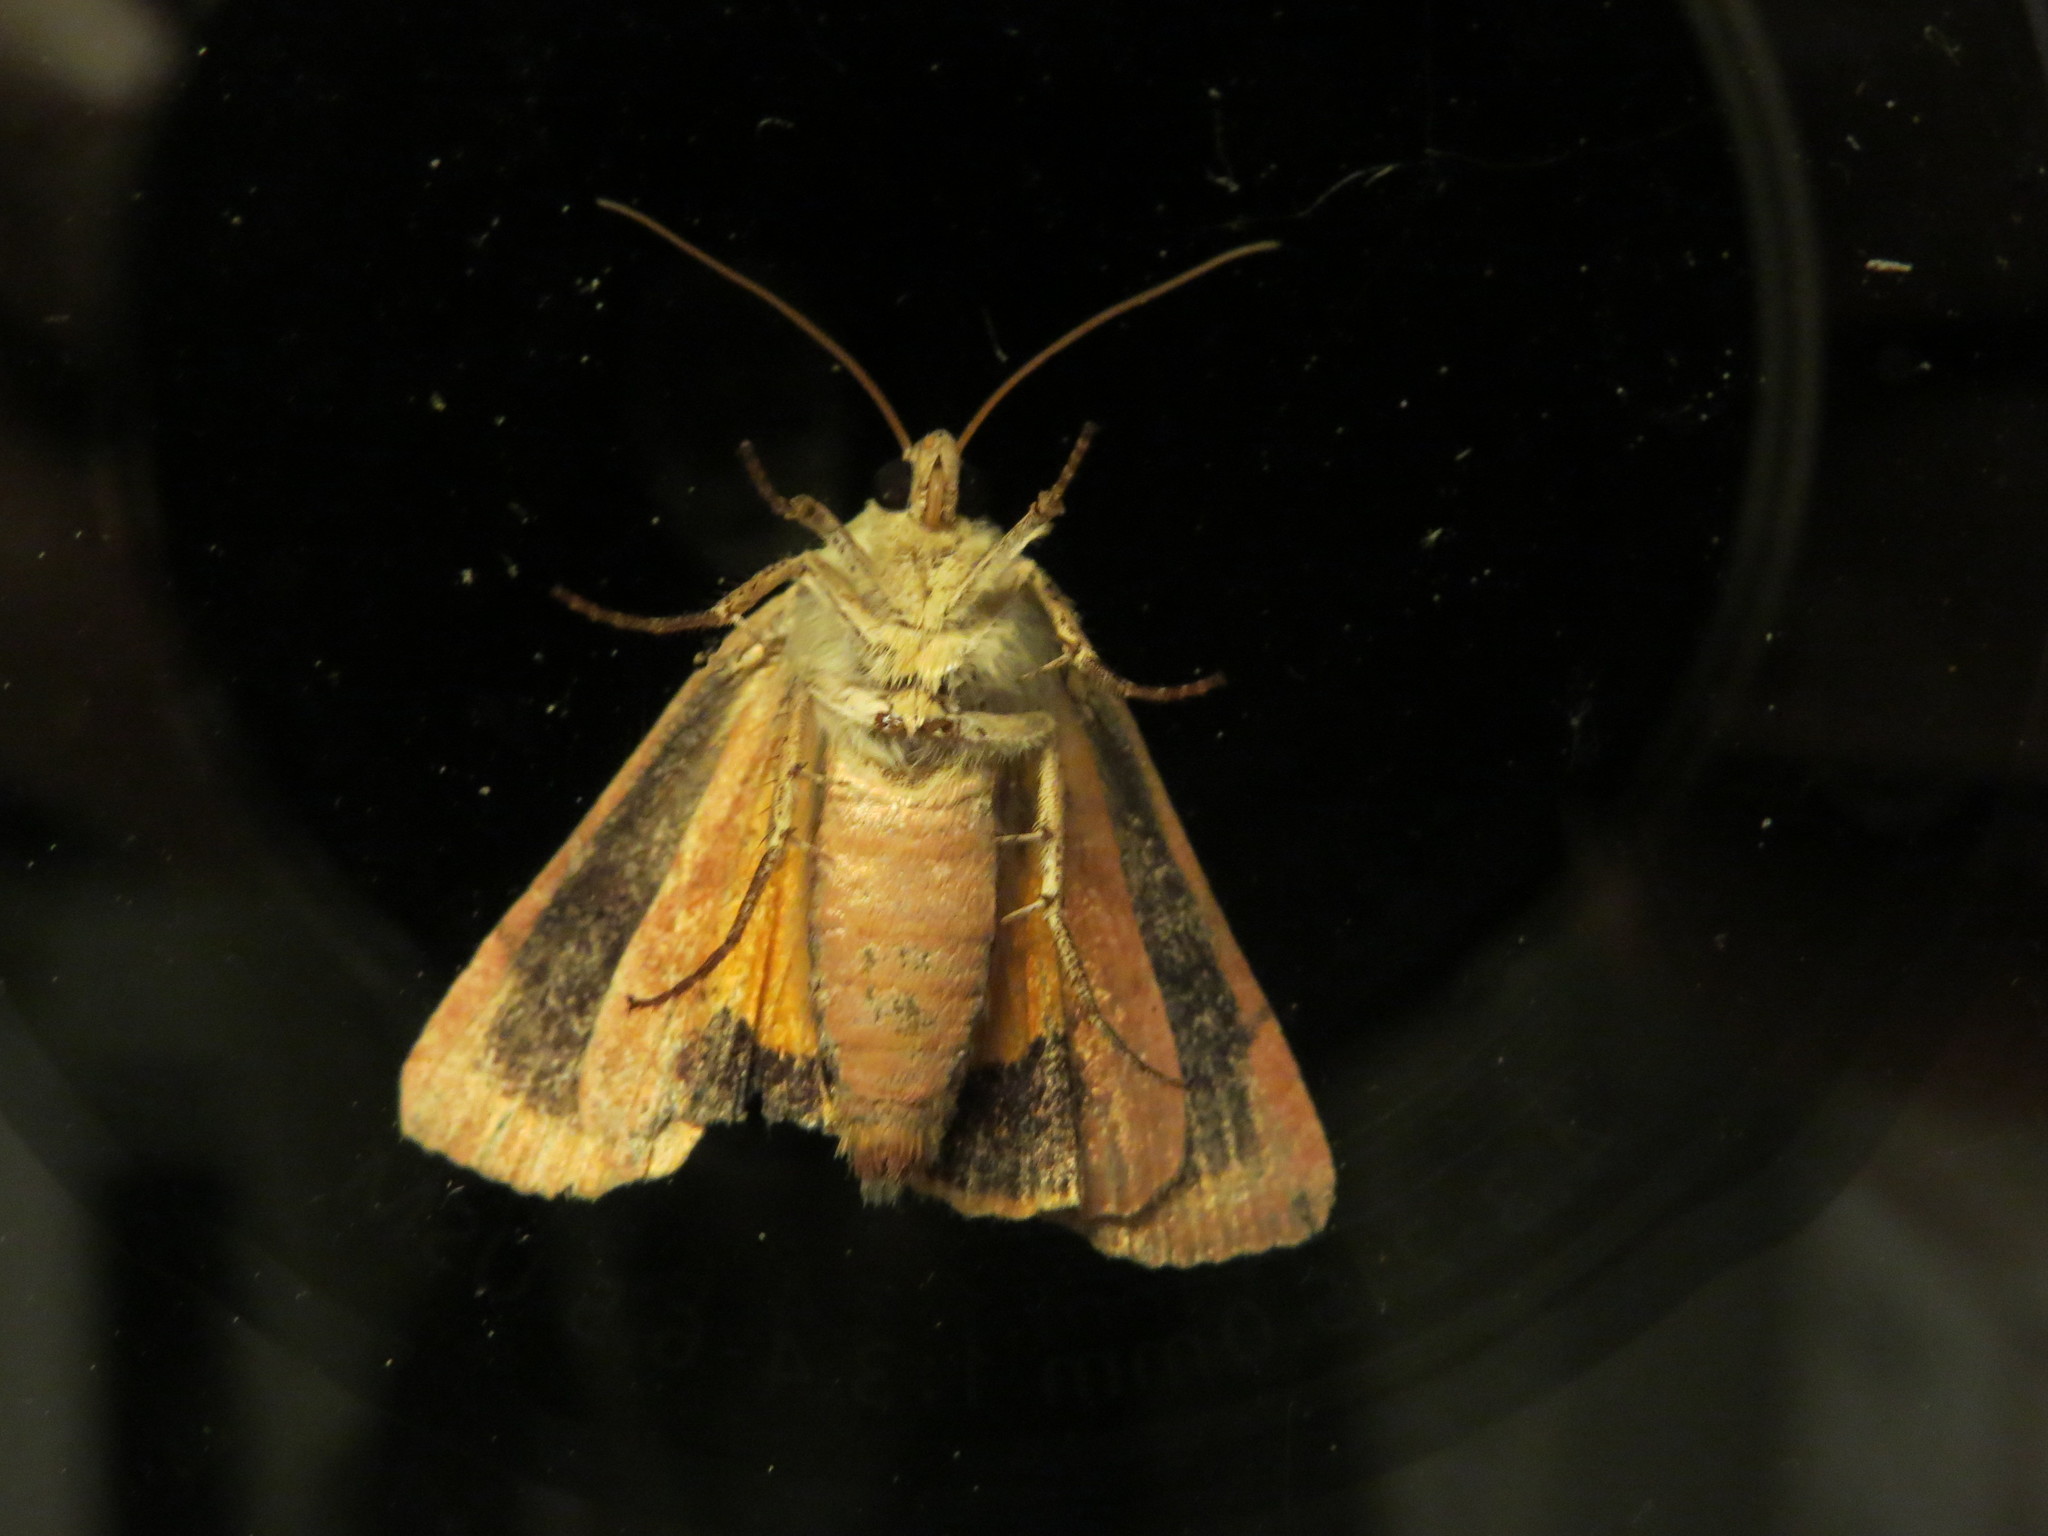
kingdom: Animalia
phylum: Arthropoda
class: Insecta
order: Lepidoptera
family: Noctuidae
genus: Noctua
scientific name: Noctua janthe
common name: Lesser broad-bordered yellow underwing
